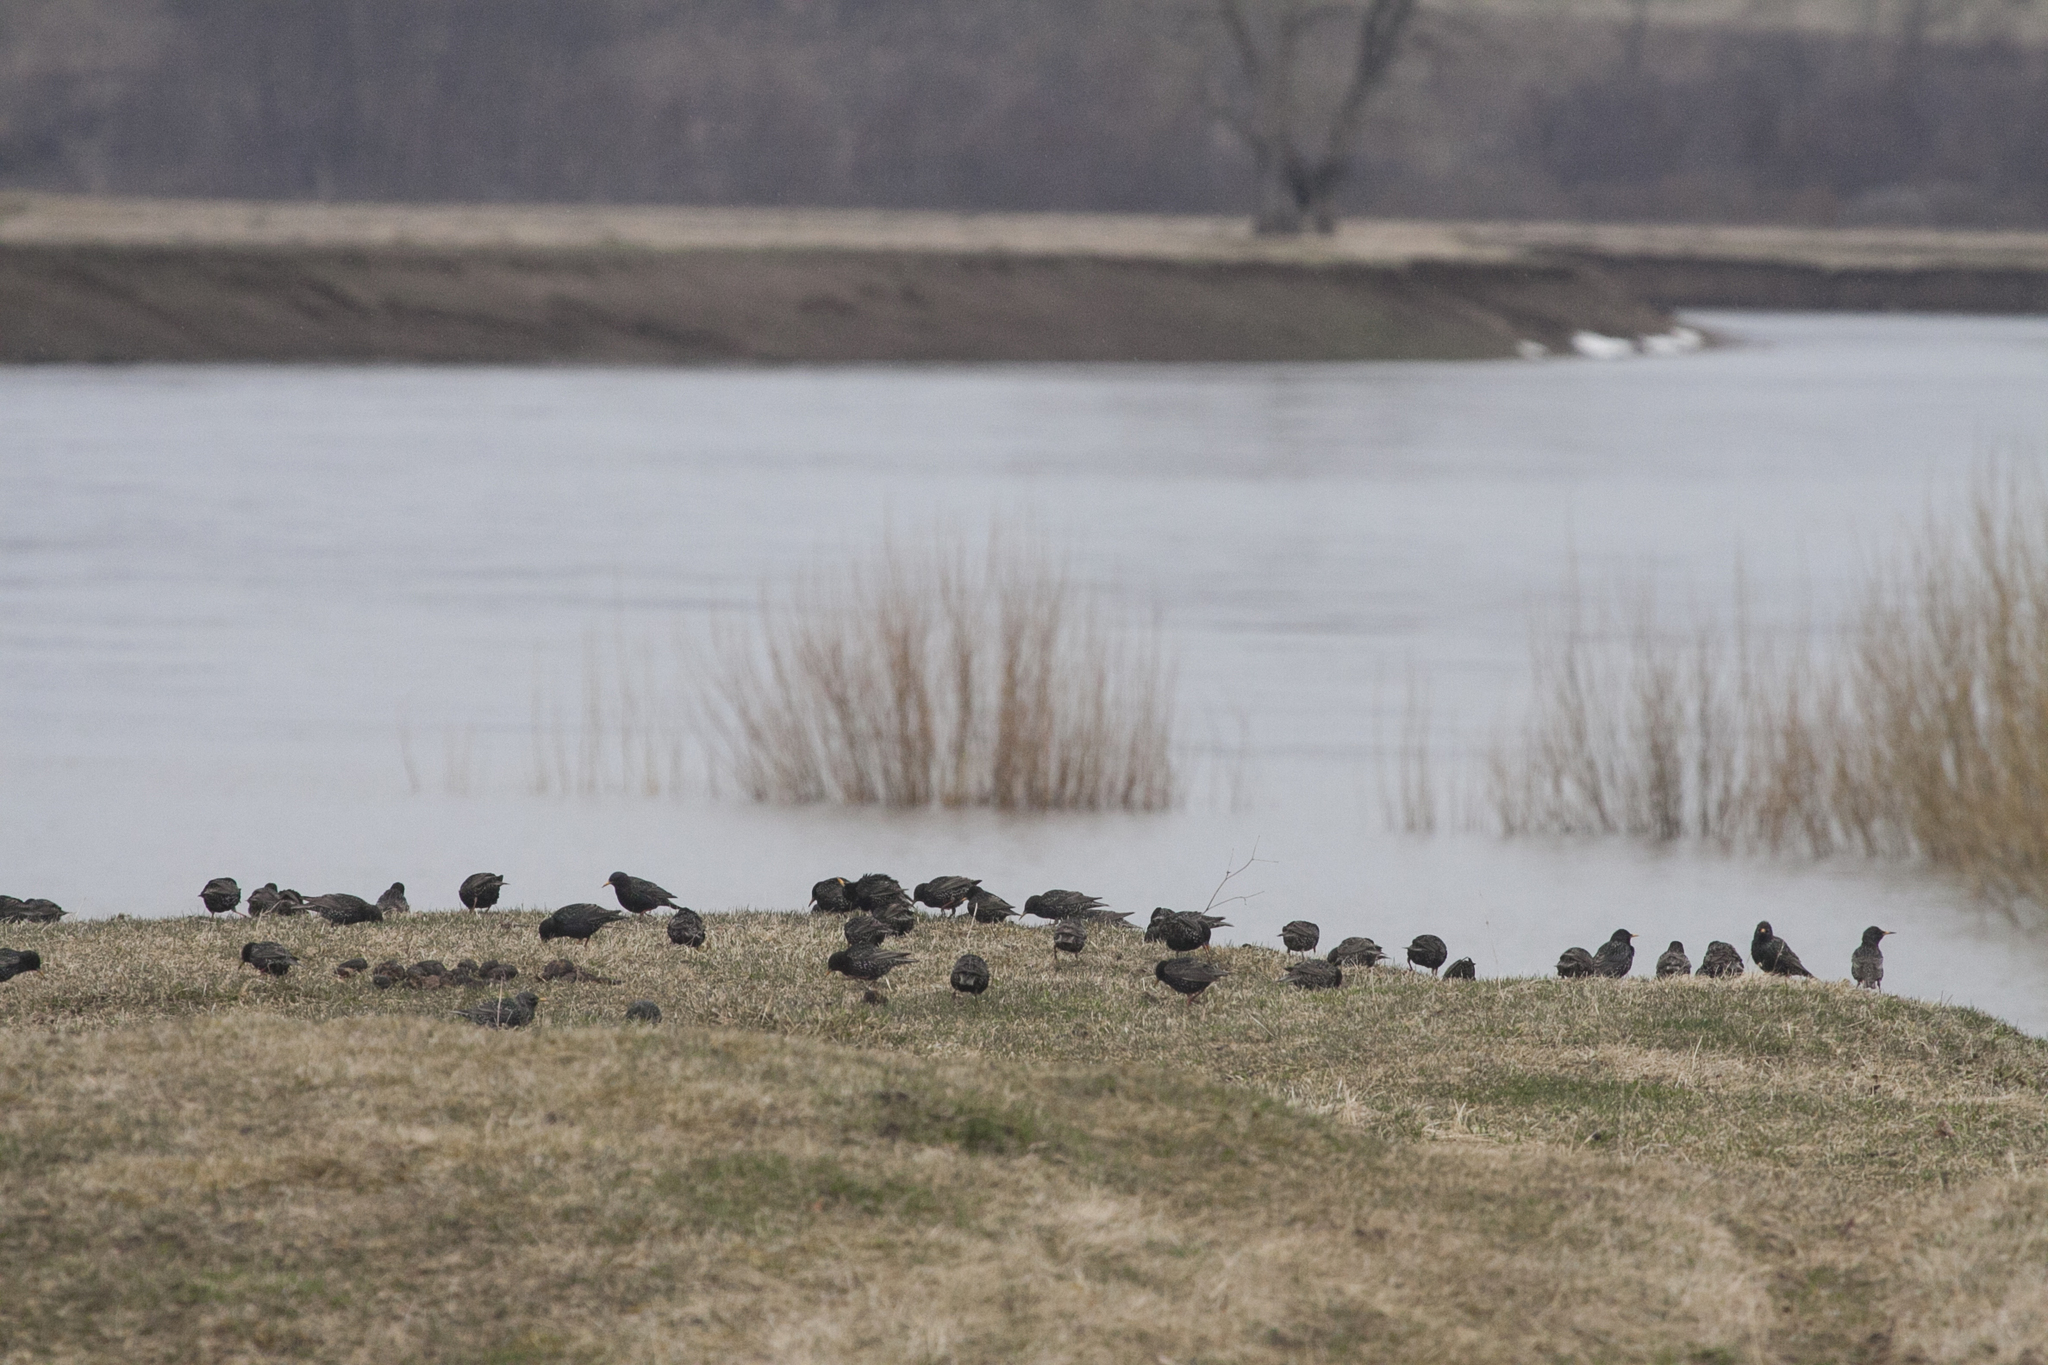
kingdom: Animalia
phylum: Chordata
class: Aves
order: Passeriformes
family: Sturnidae
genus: Sturnus
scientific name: Sturnus vulgaris
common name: Common starling
